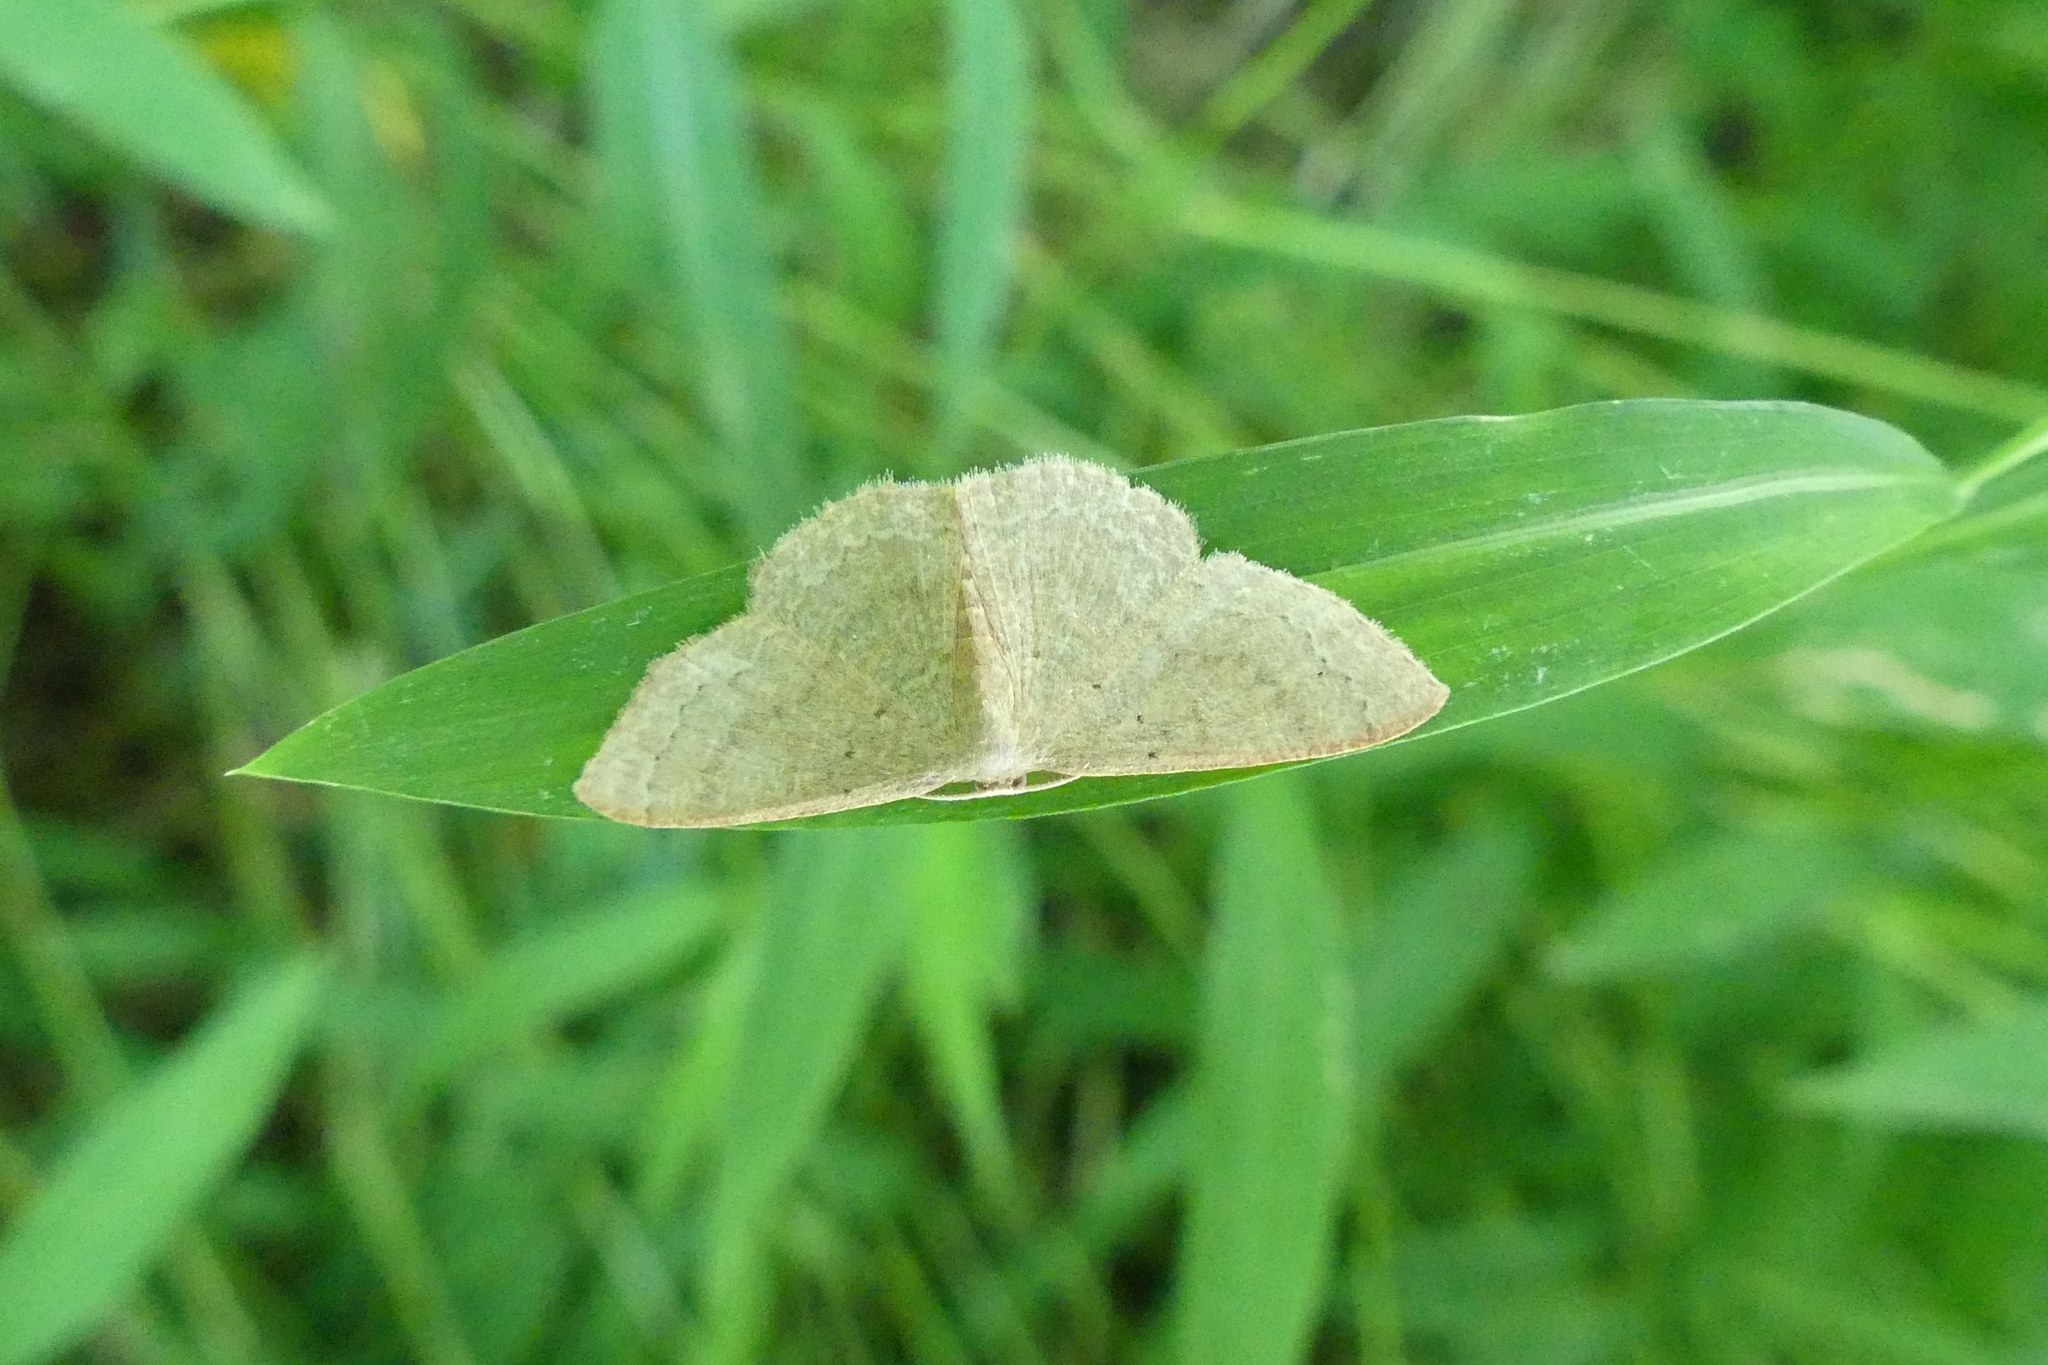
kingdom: Animalia
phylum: Arthropoda
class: Insecta
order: Lepidoptera
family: Geometridae
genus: Pleuroprucha
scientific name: Pleuroprucha insulsaria
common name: Common tan wave
